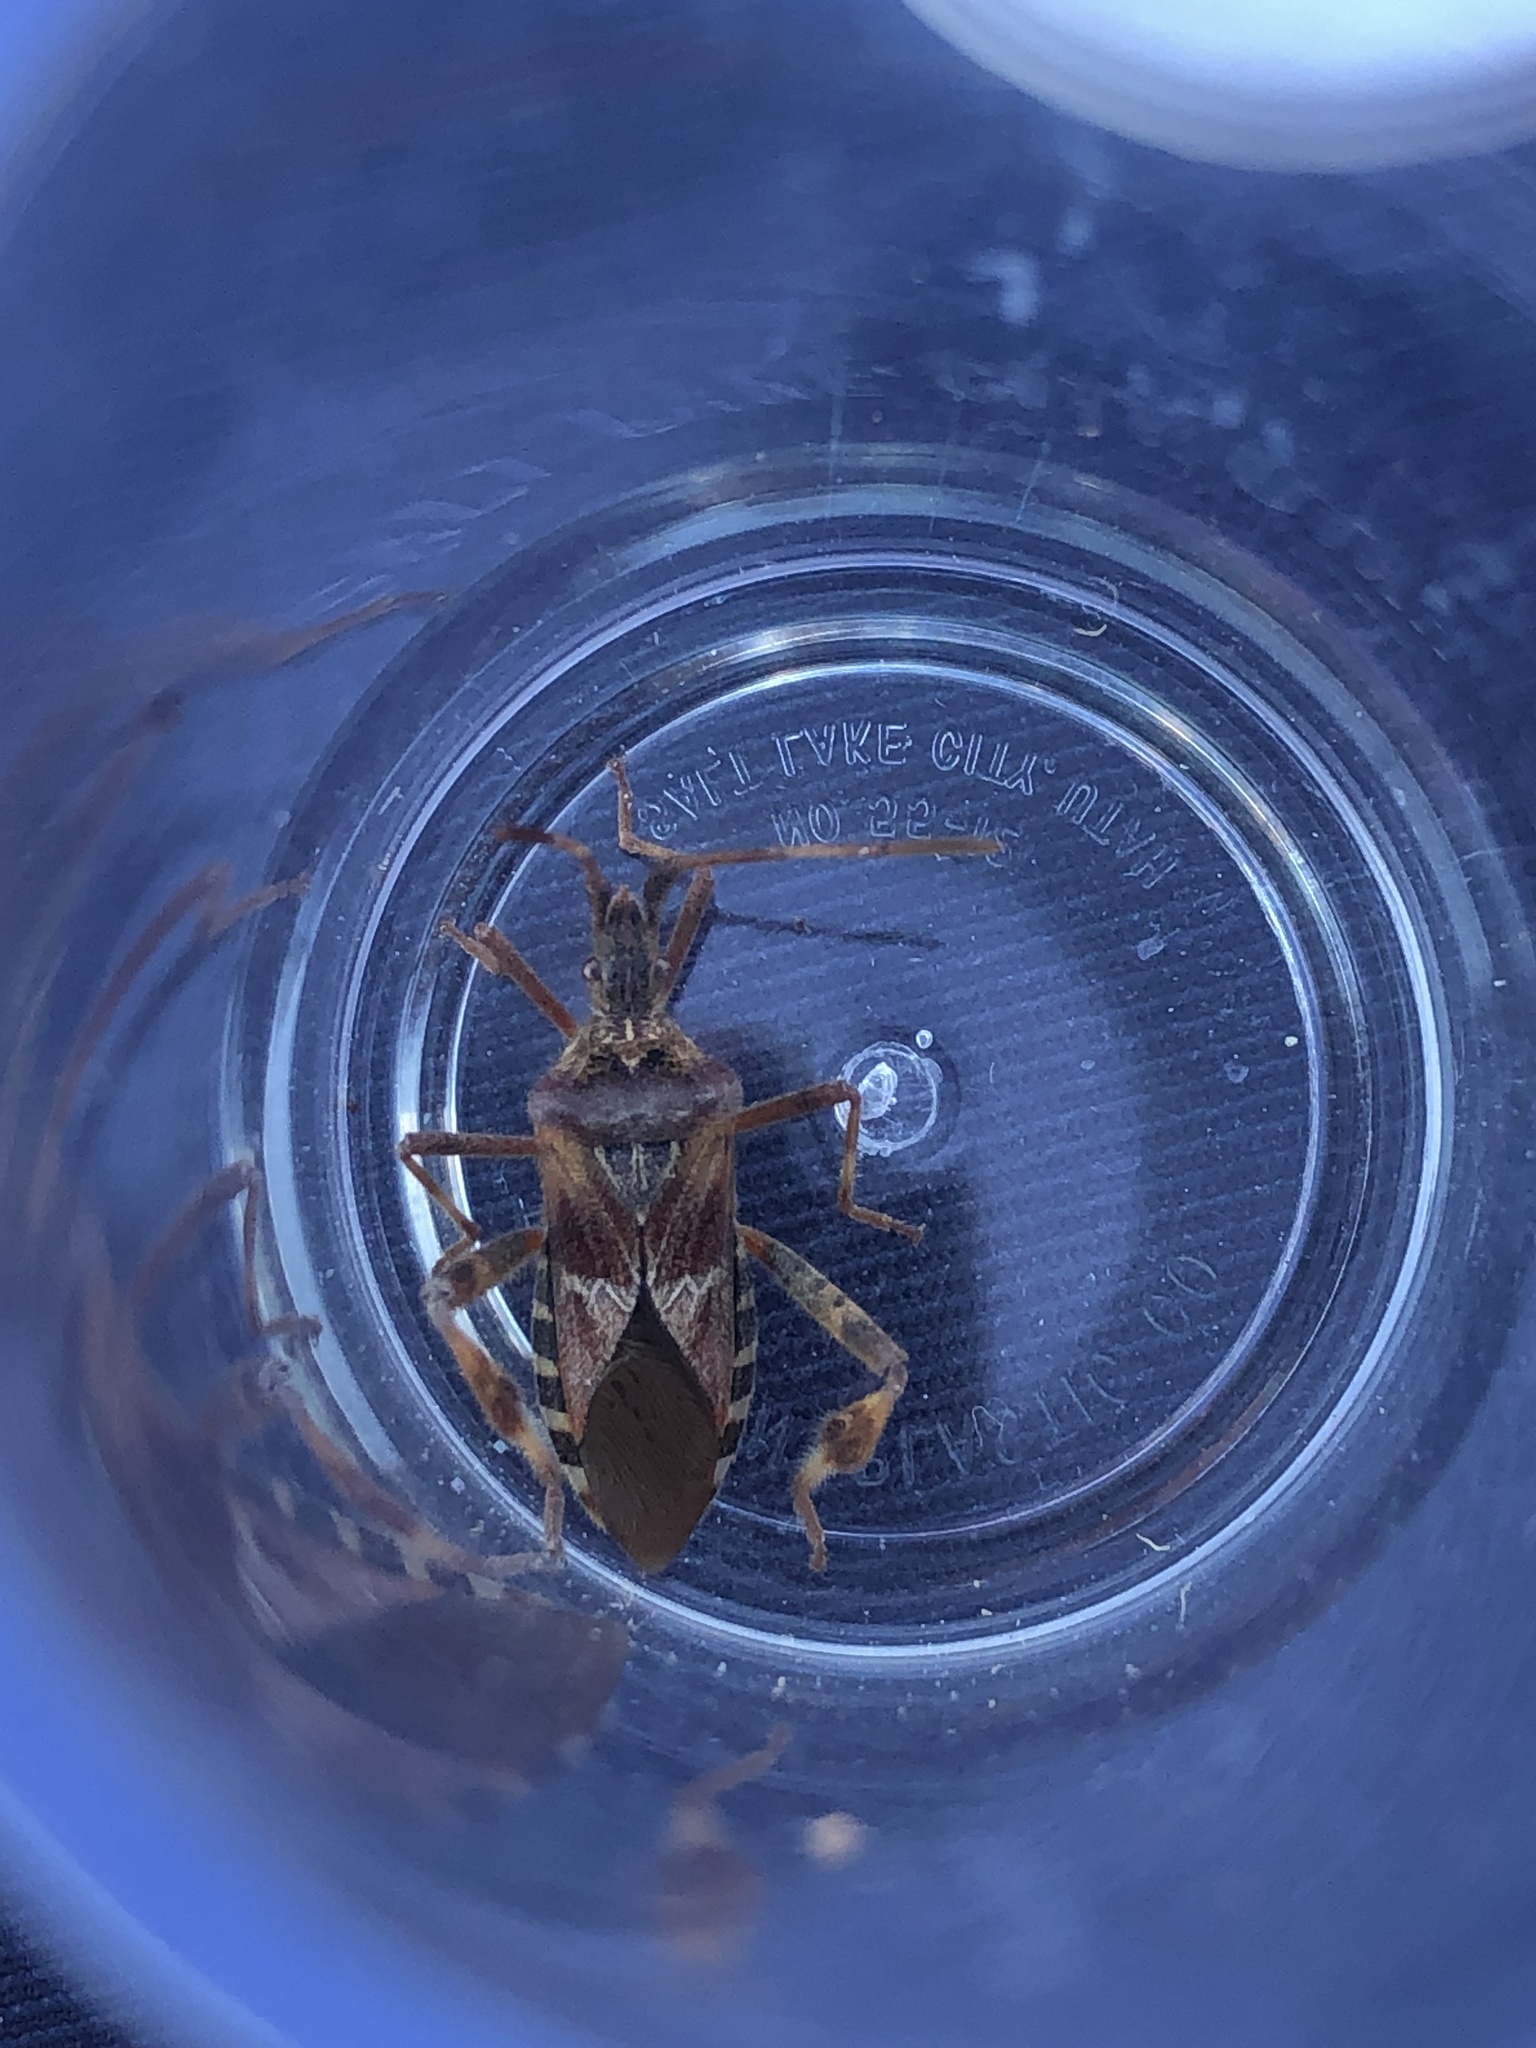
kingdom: Animalia
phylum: Arthropoda
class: Insecta
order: Hemiptera
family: Coreidae
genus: Leptoglossus
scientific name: Leptoglossus occidentalis
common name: Western conifer-seed bug
